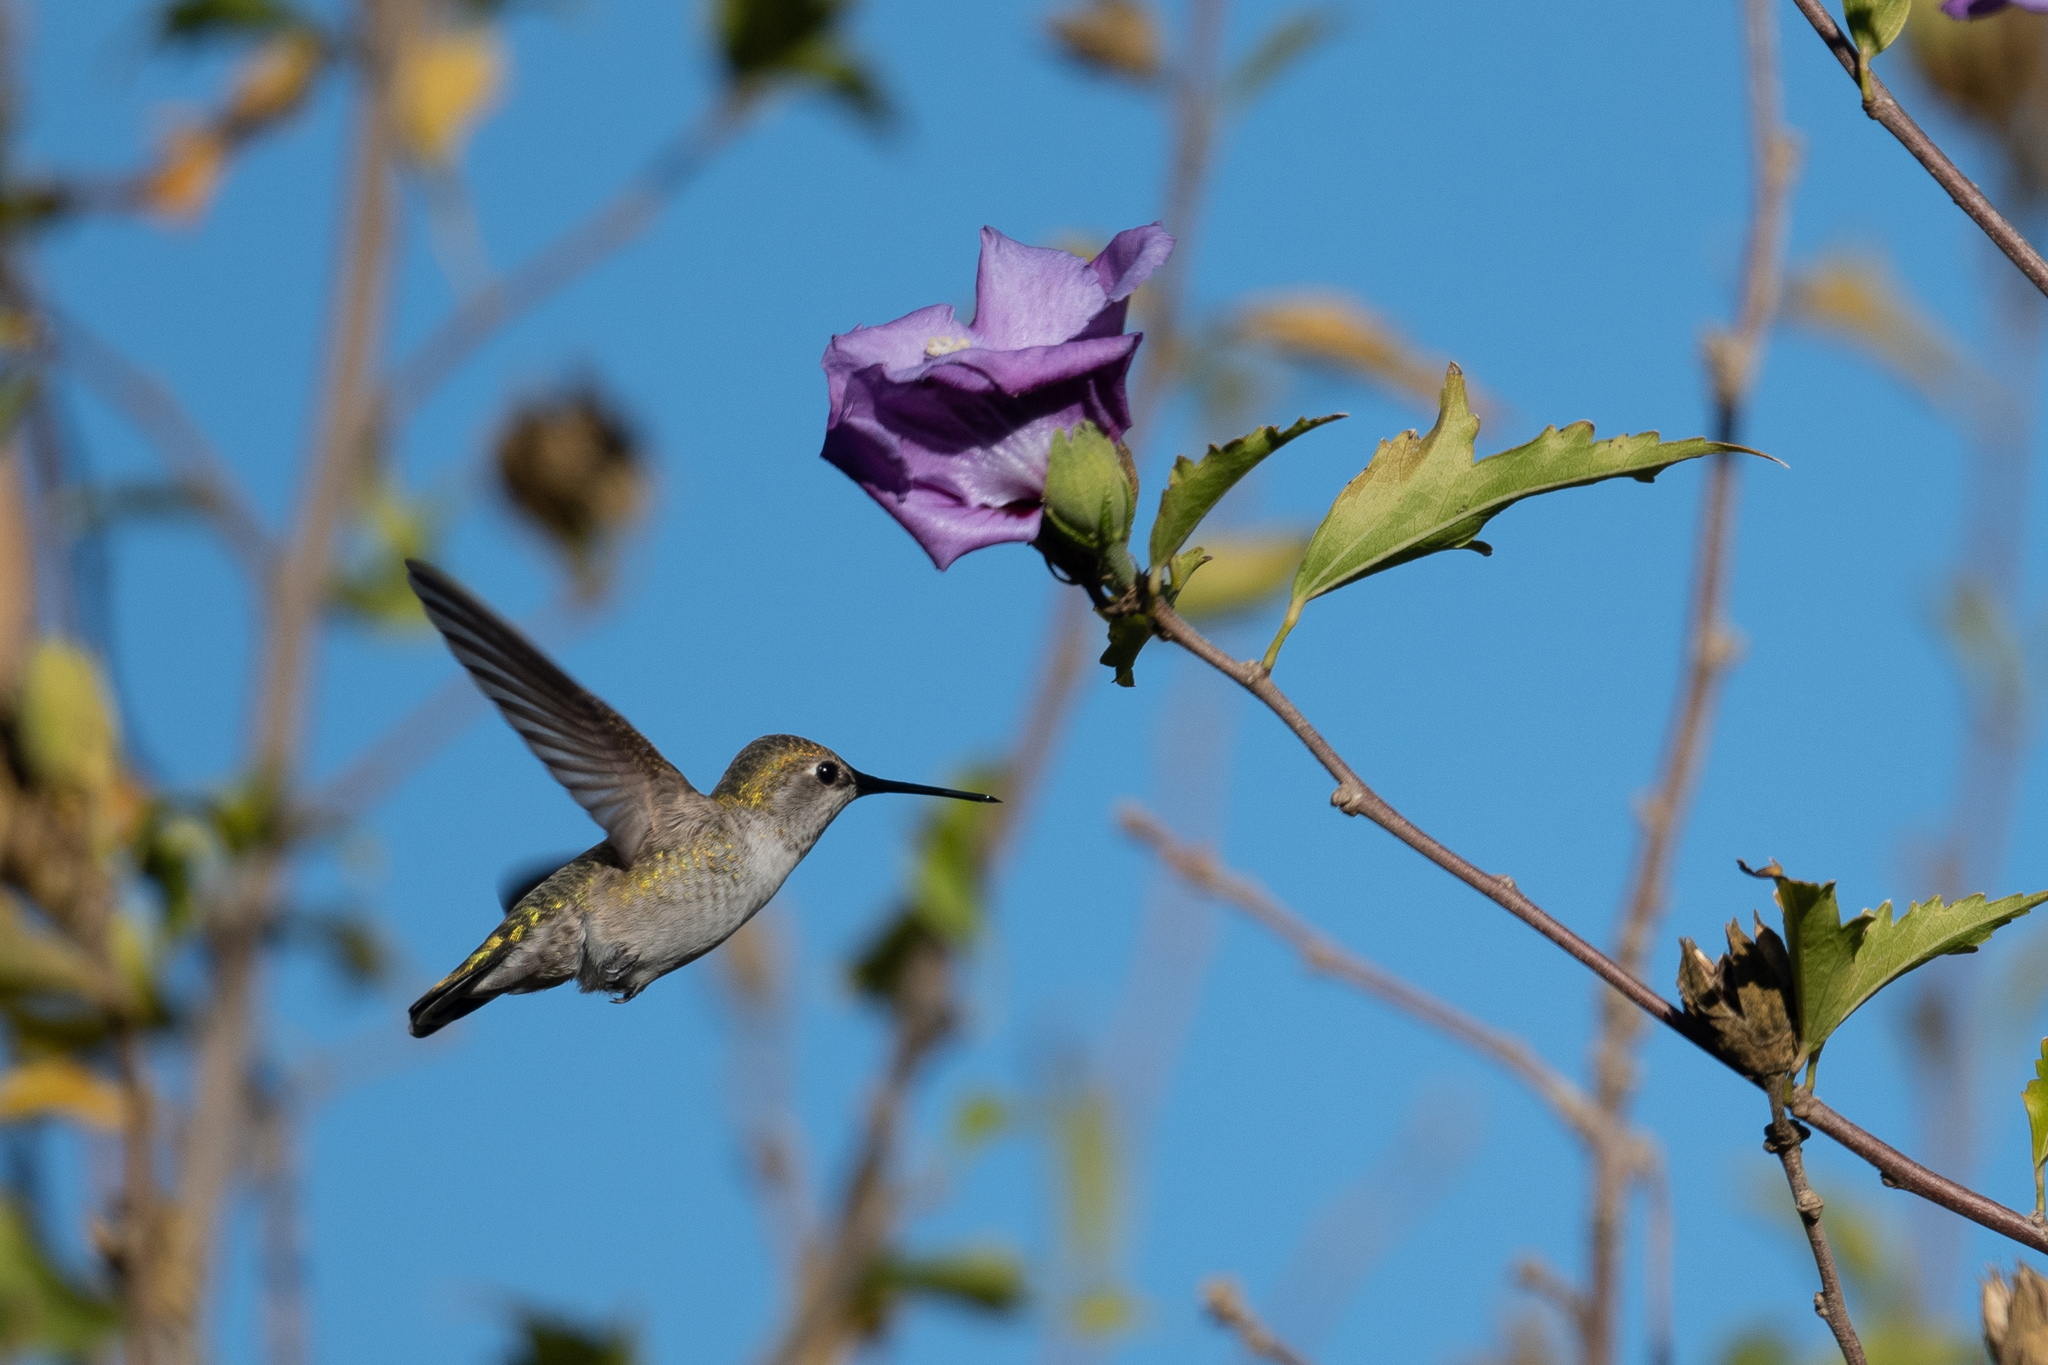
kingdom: Animalia
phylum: Chordata
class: Aves
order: Apodiformes
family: Trochilidae
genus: Calypte
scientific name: Calypte anna
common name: Anna's hummingbird
